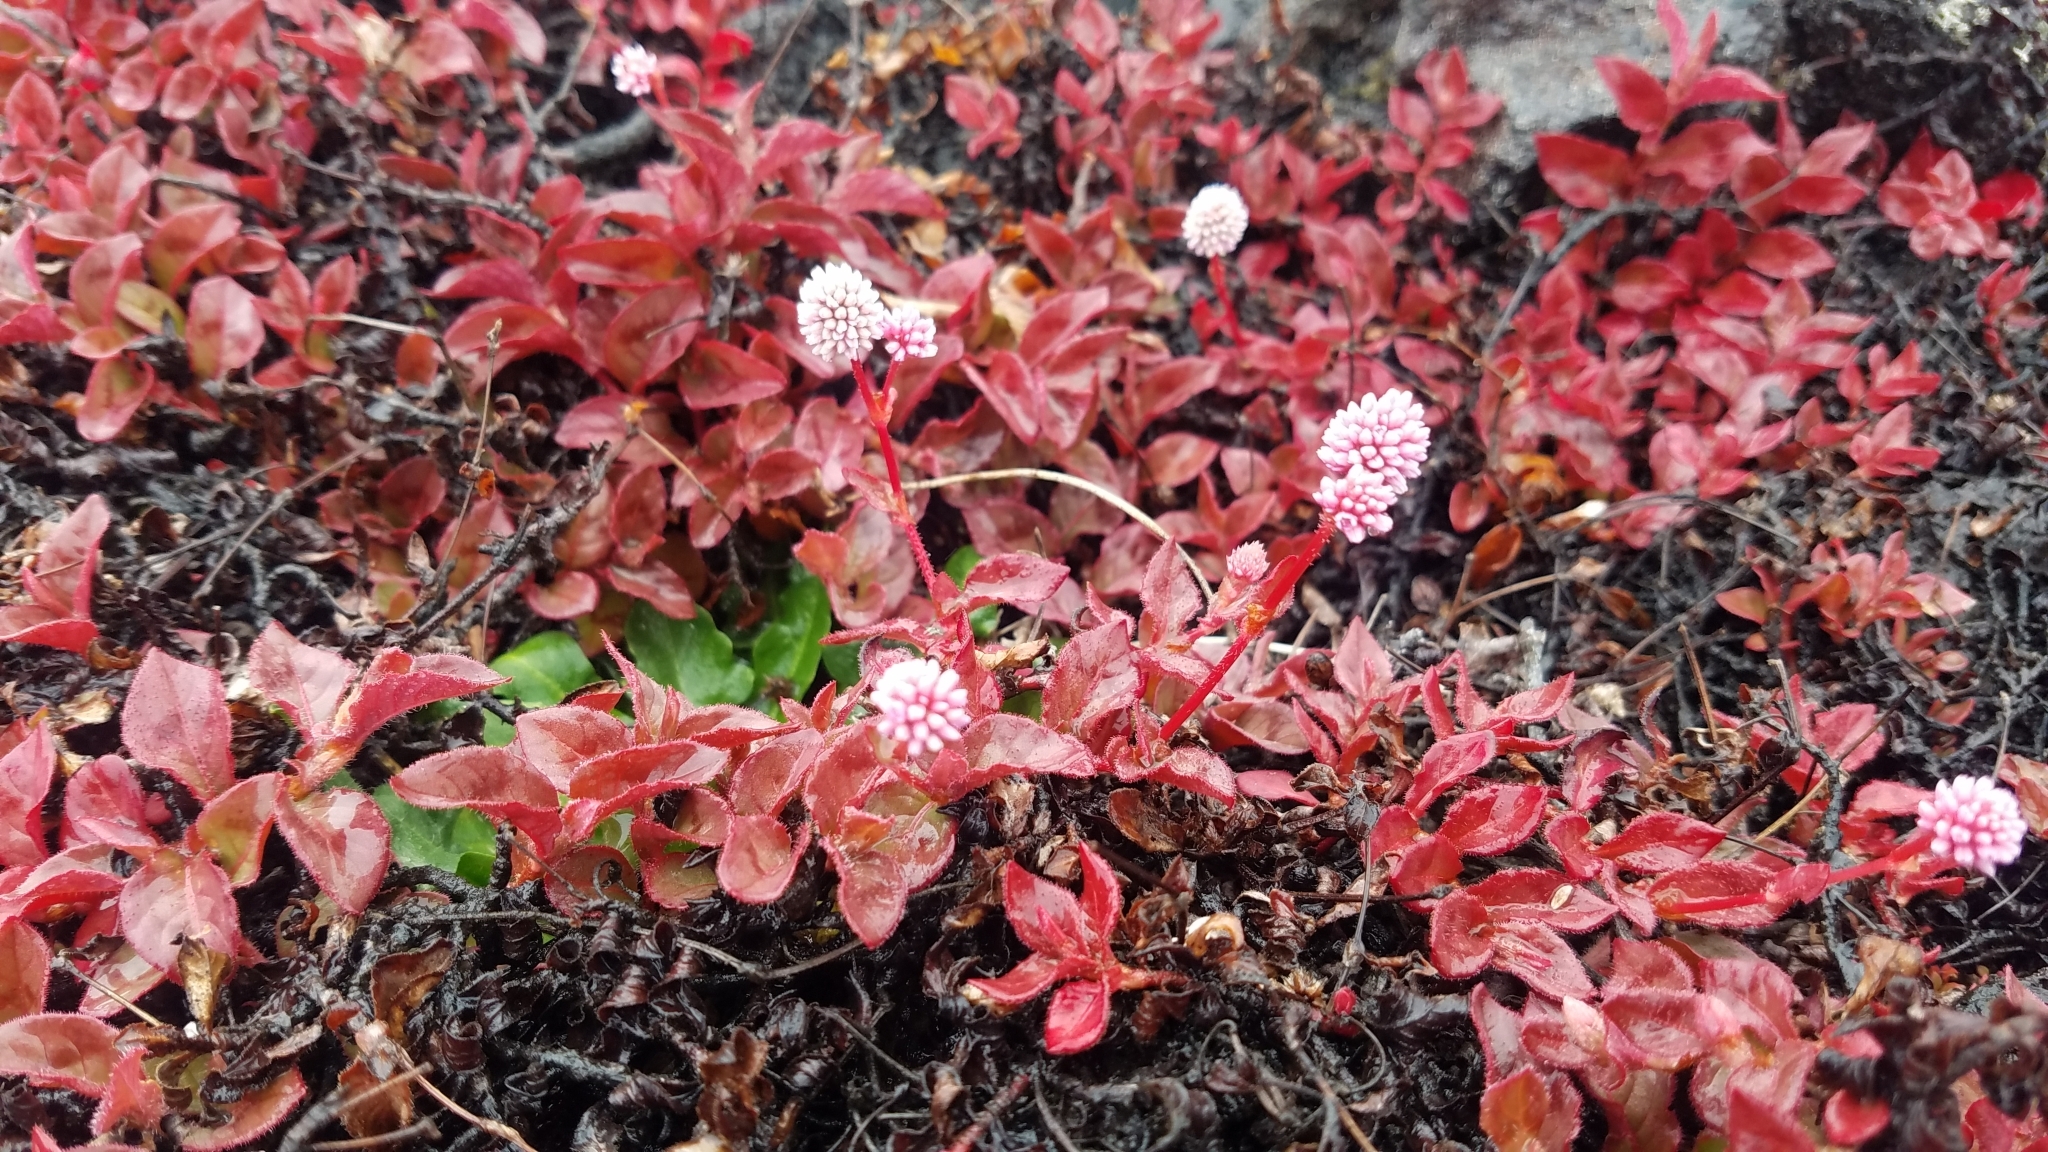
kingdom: Plantae
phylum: Tracheophyta
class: Magnoliopsida
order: Caryophyllales
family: Polygonaceae
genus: Persicaria
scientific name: Persicaria capitata
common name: Pinkhead smartweed
